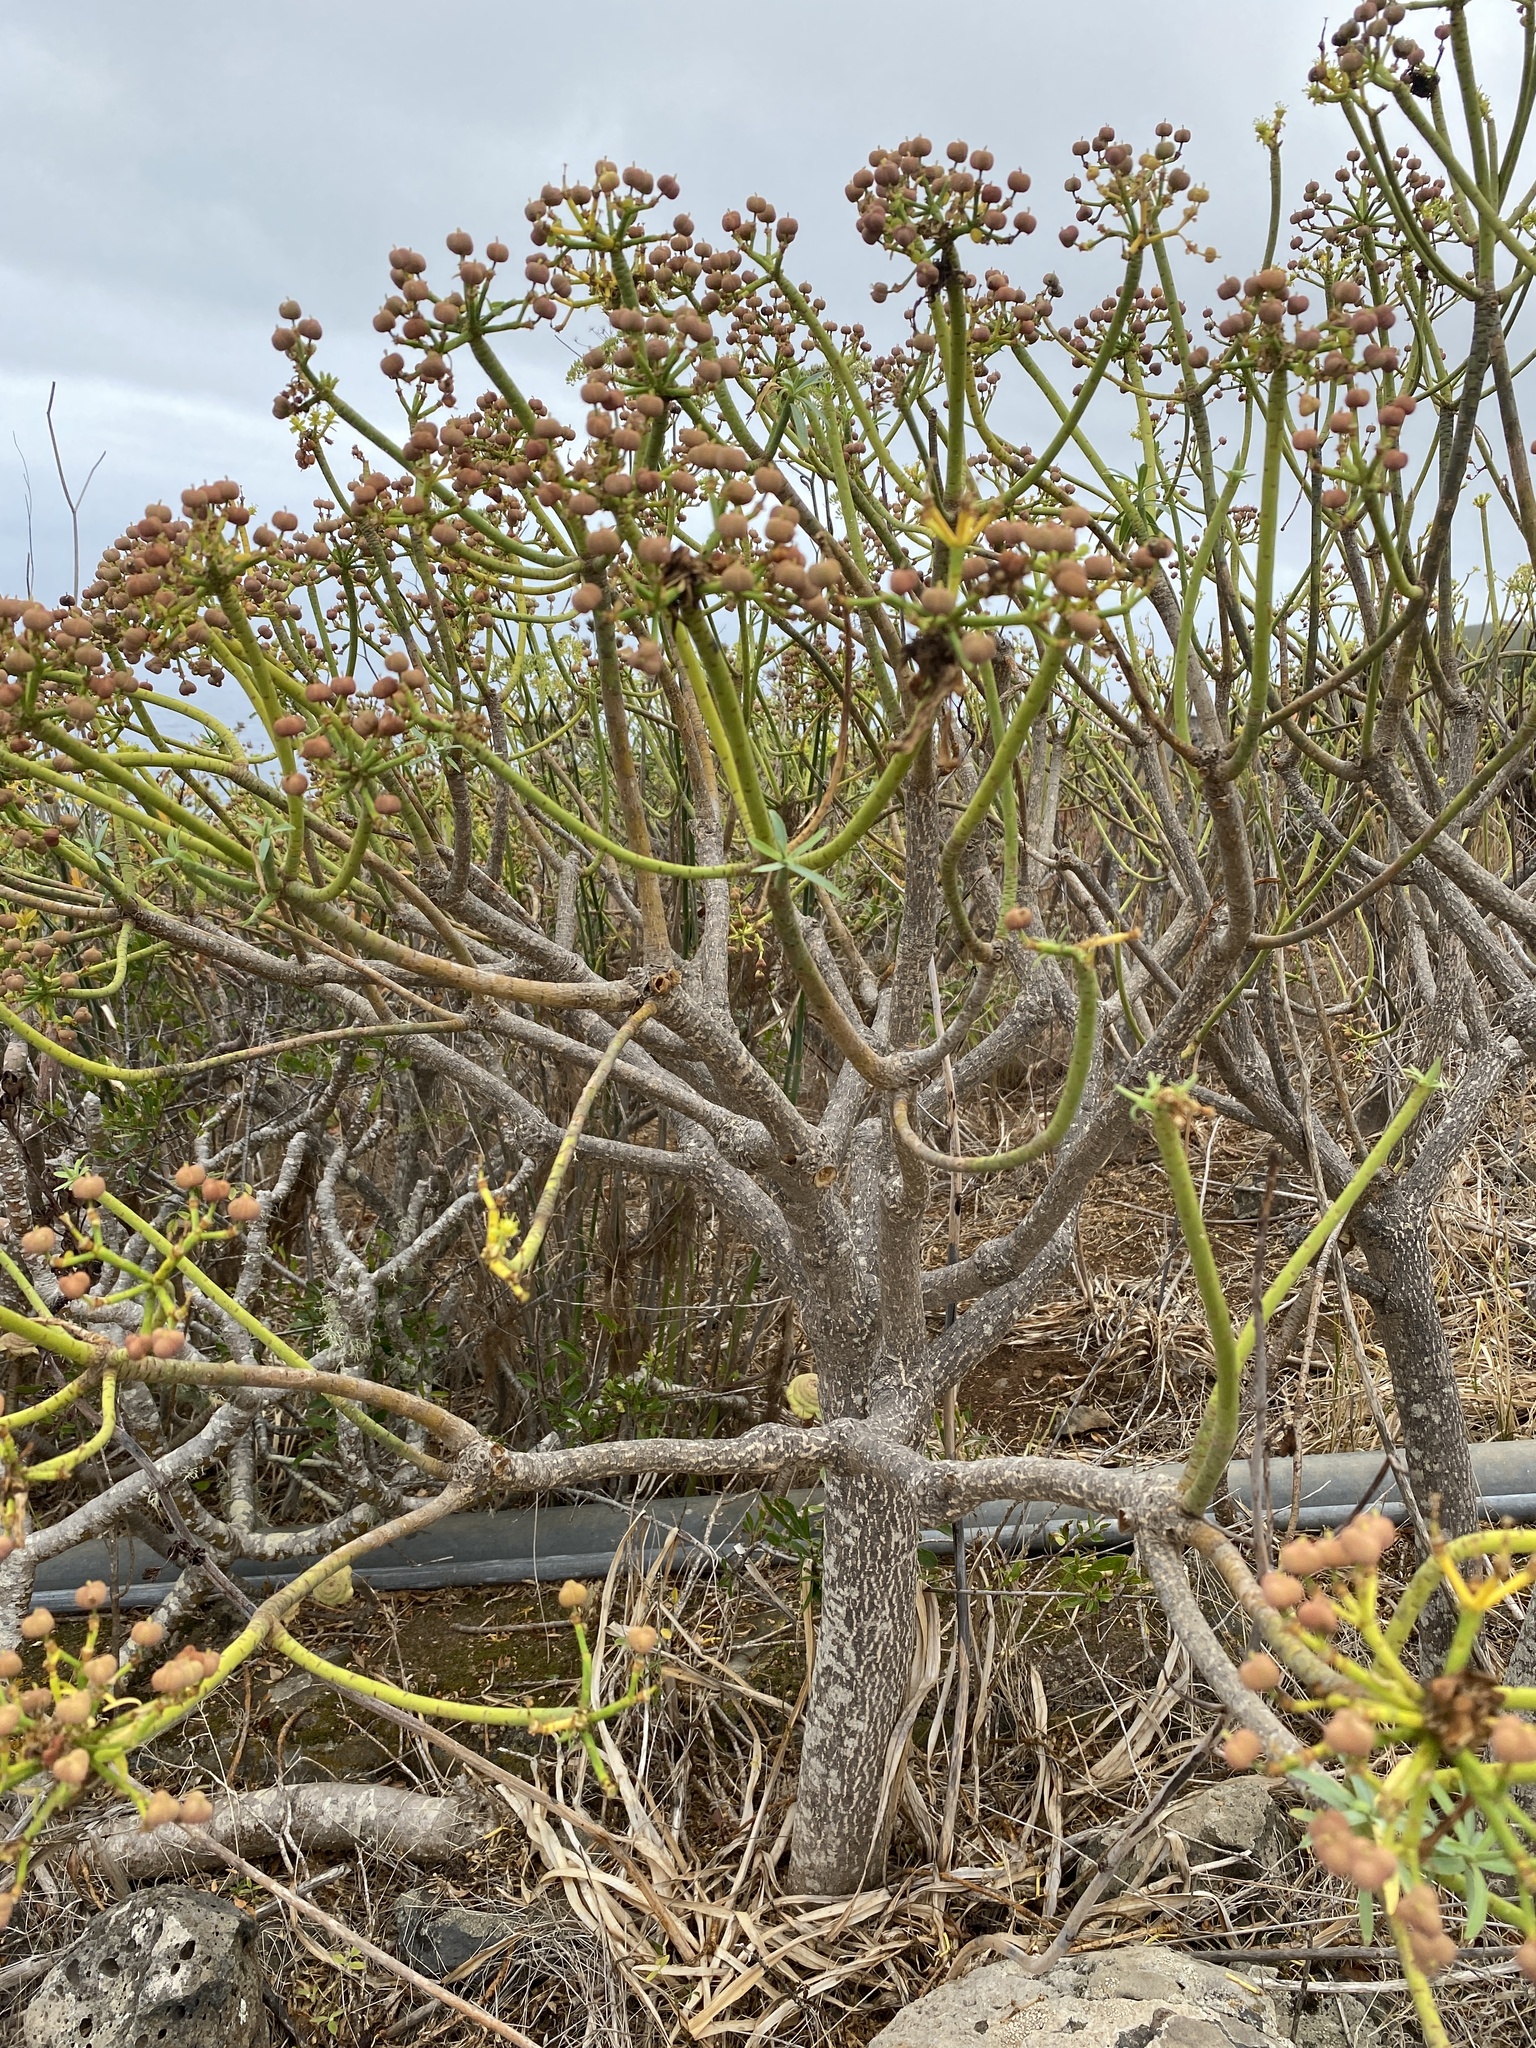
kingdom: Plantae
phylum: Tracheophyta
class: Magnoliopsida
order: Malpighiales
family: Euphorbiaceae
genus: Euphorbia
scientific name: Euphorbia lamarckii
